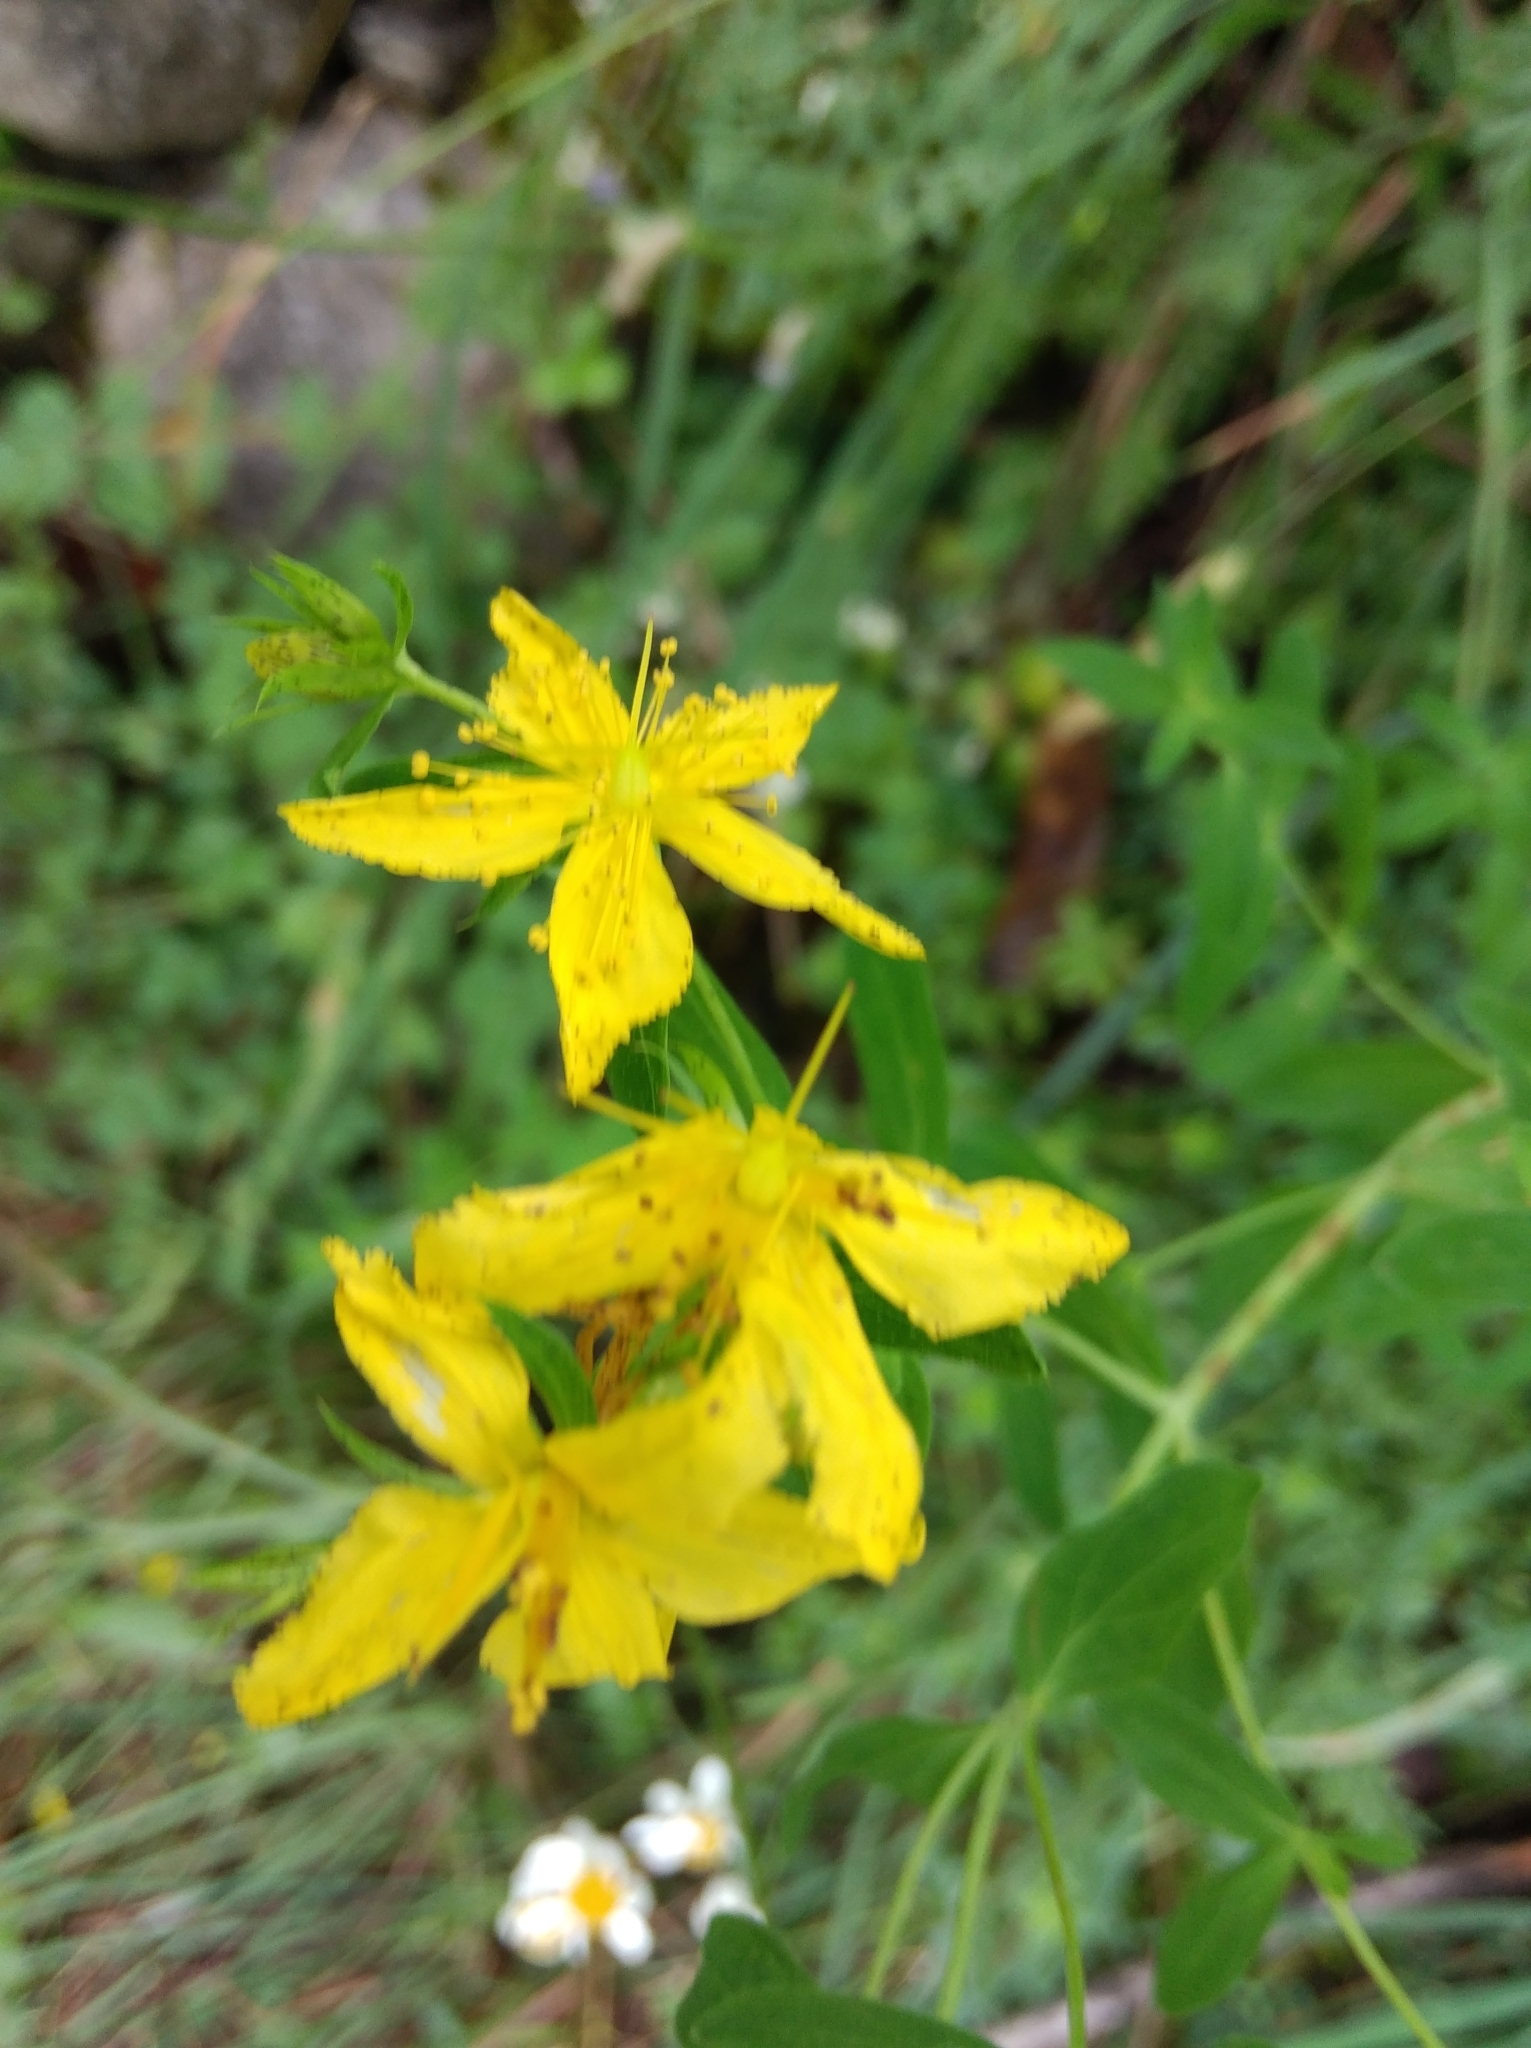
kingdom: Plantae
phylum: Tracheophyta
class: Magnoliopsida
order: Malpighiales
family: Hypericaceae
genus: Hypericum
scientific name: Hypericum perforatum
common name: Common st. johnswort
